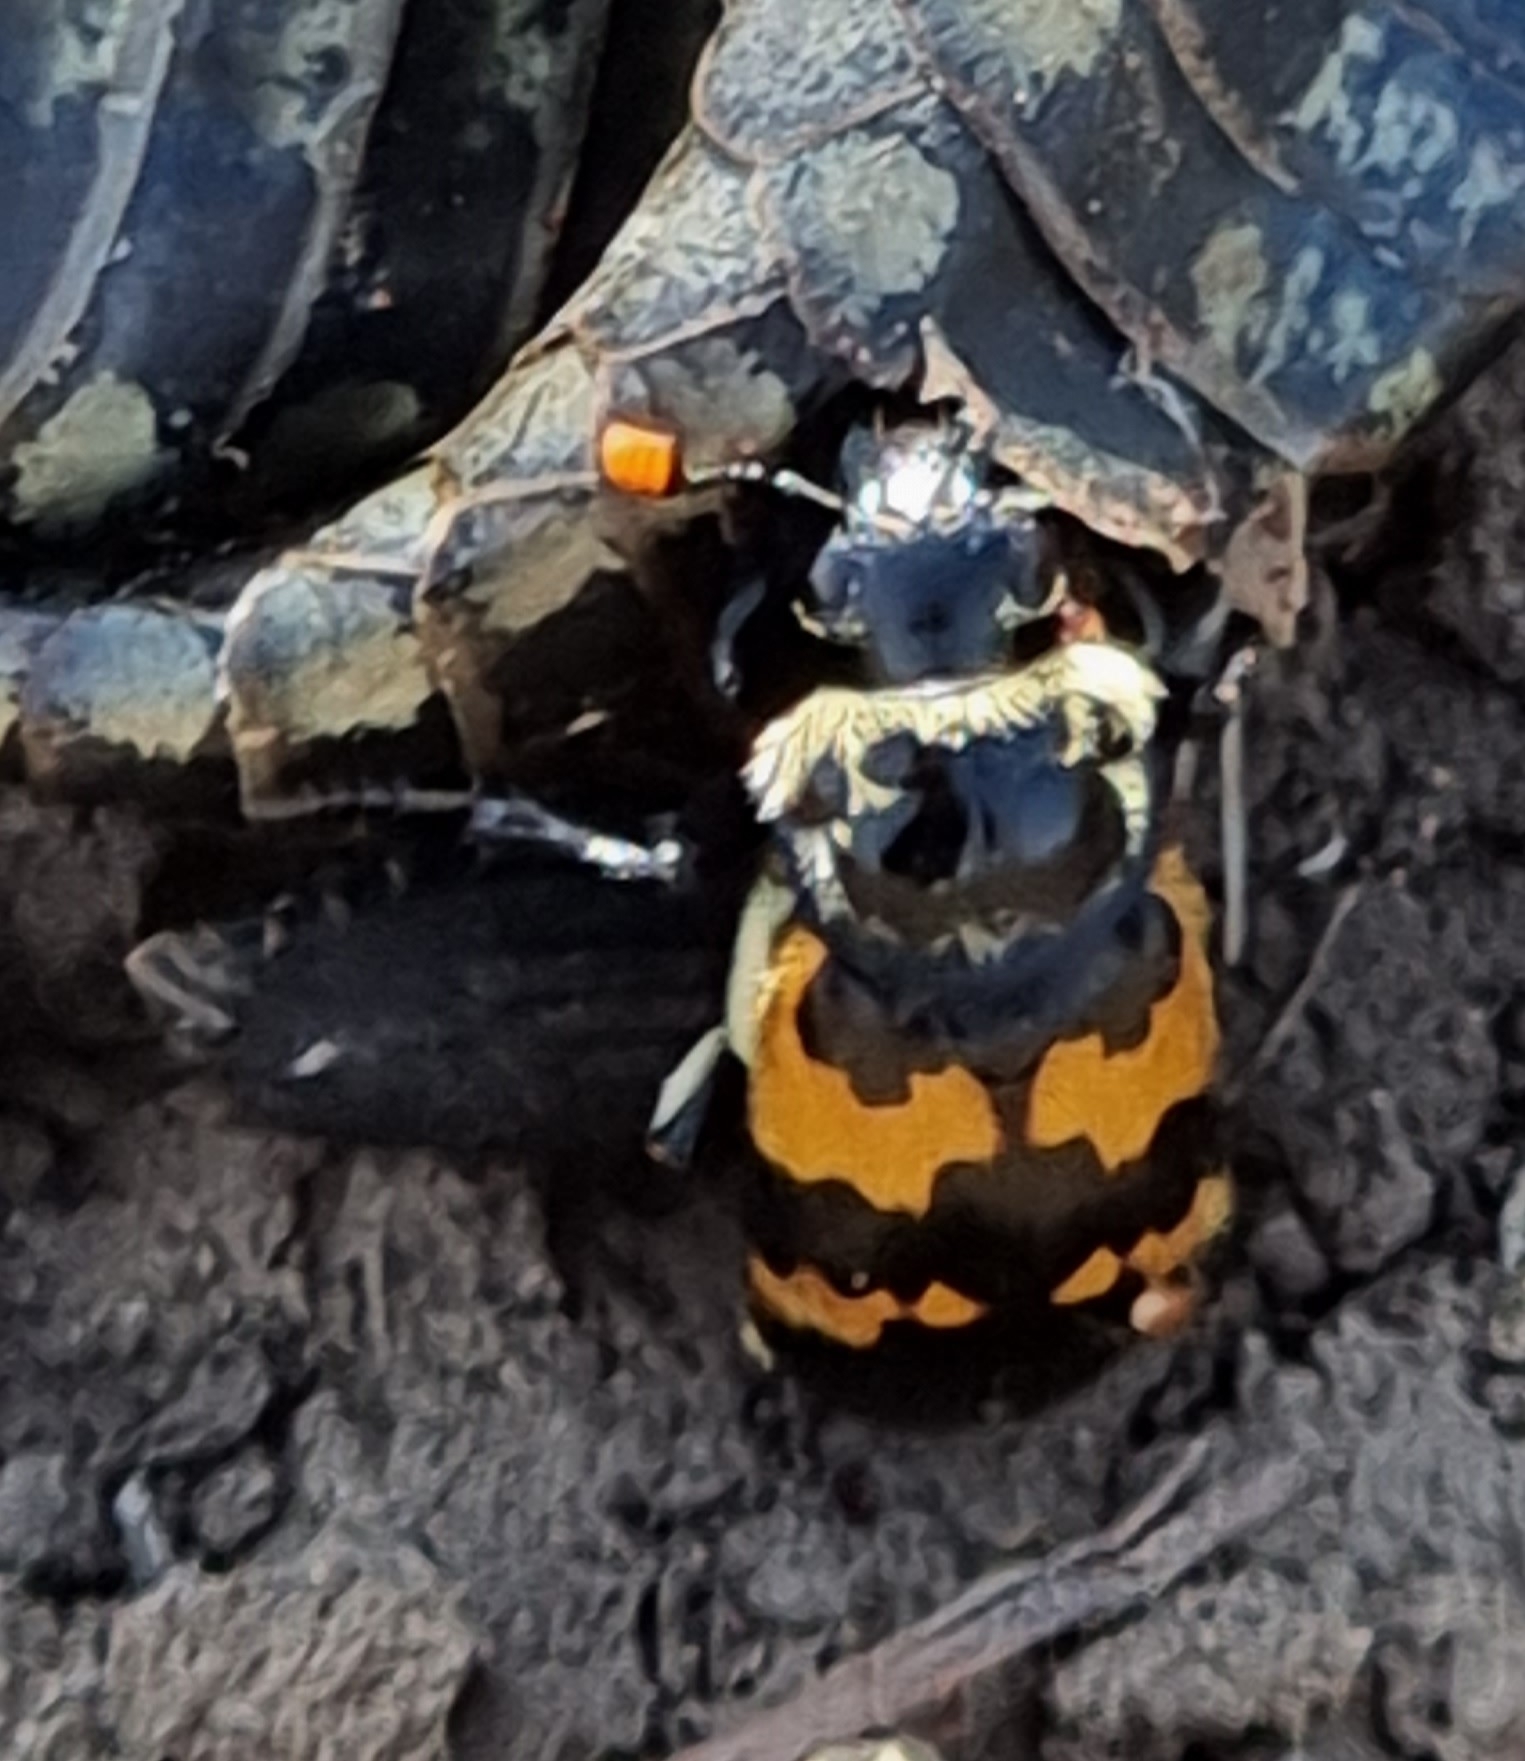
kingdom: Animalia
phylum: Arthropoda
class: Insecta
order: Coleoptera
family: Staphylinidae
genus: Nicrophorus
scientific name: Nicrophorus antennatus
